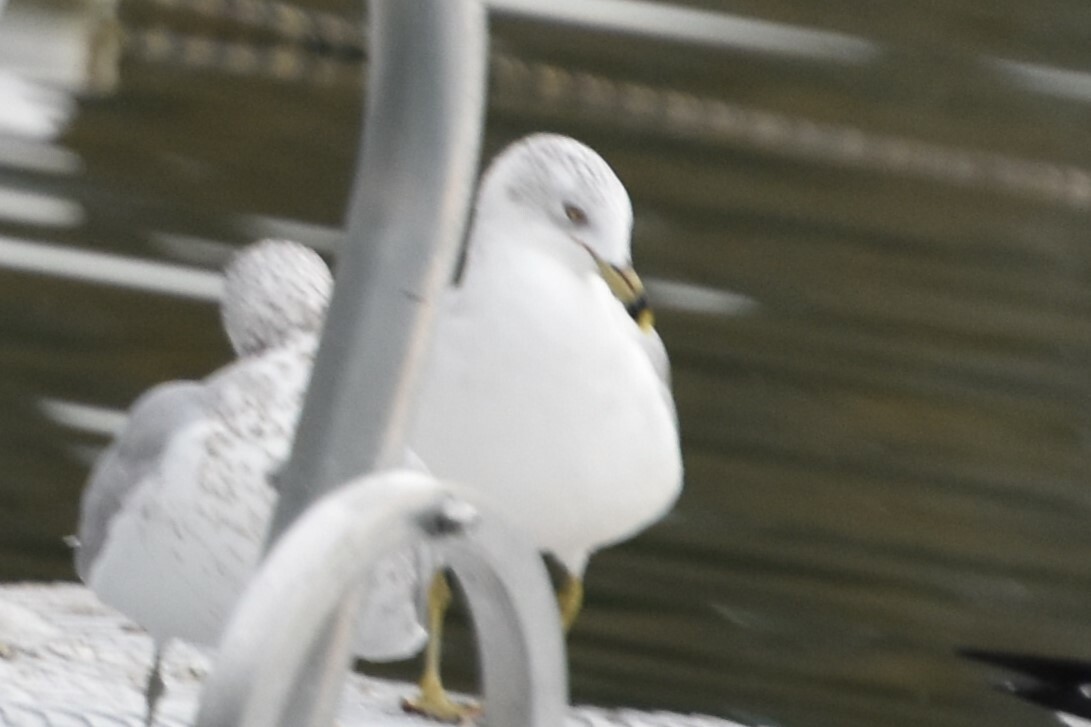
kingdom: Animalia
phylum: Chordata
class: Aves
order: Charadriiformes
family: Laridae
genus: Larus
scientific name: Larus delawarensis
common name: Ring-billed gull
